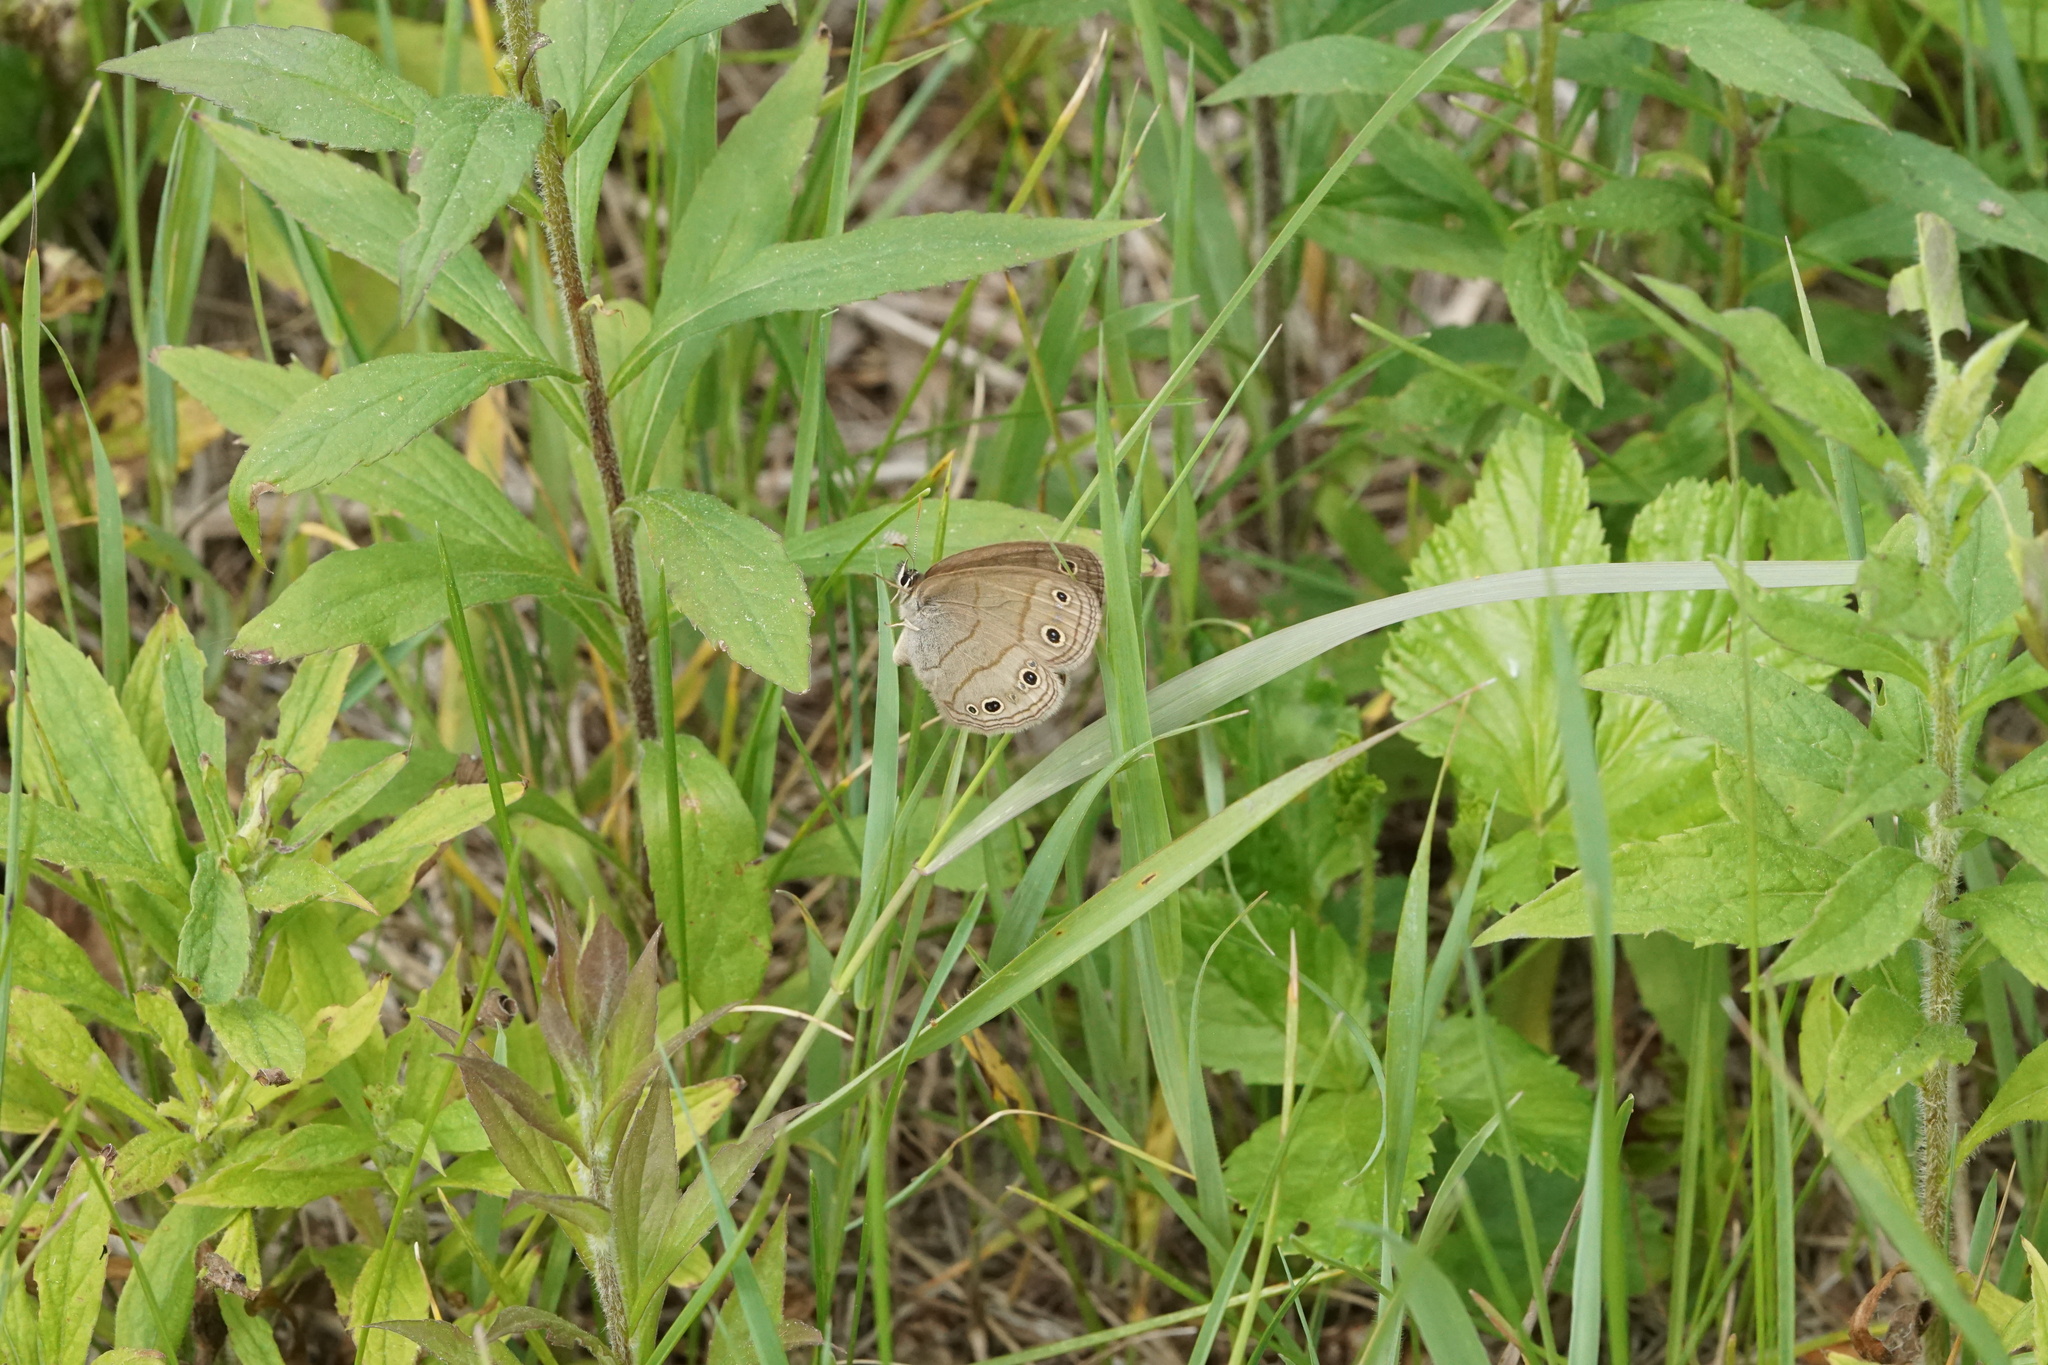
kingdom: Animalia
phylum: Arthropoda
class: Insecta
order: Lepidoptera
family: Nymphalidae
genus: Euptychia
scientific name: Euptychia cymela
